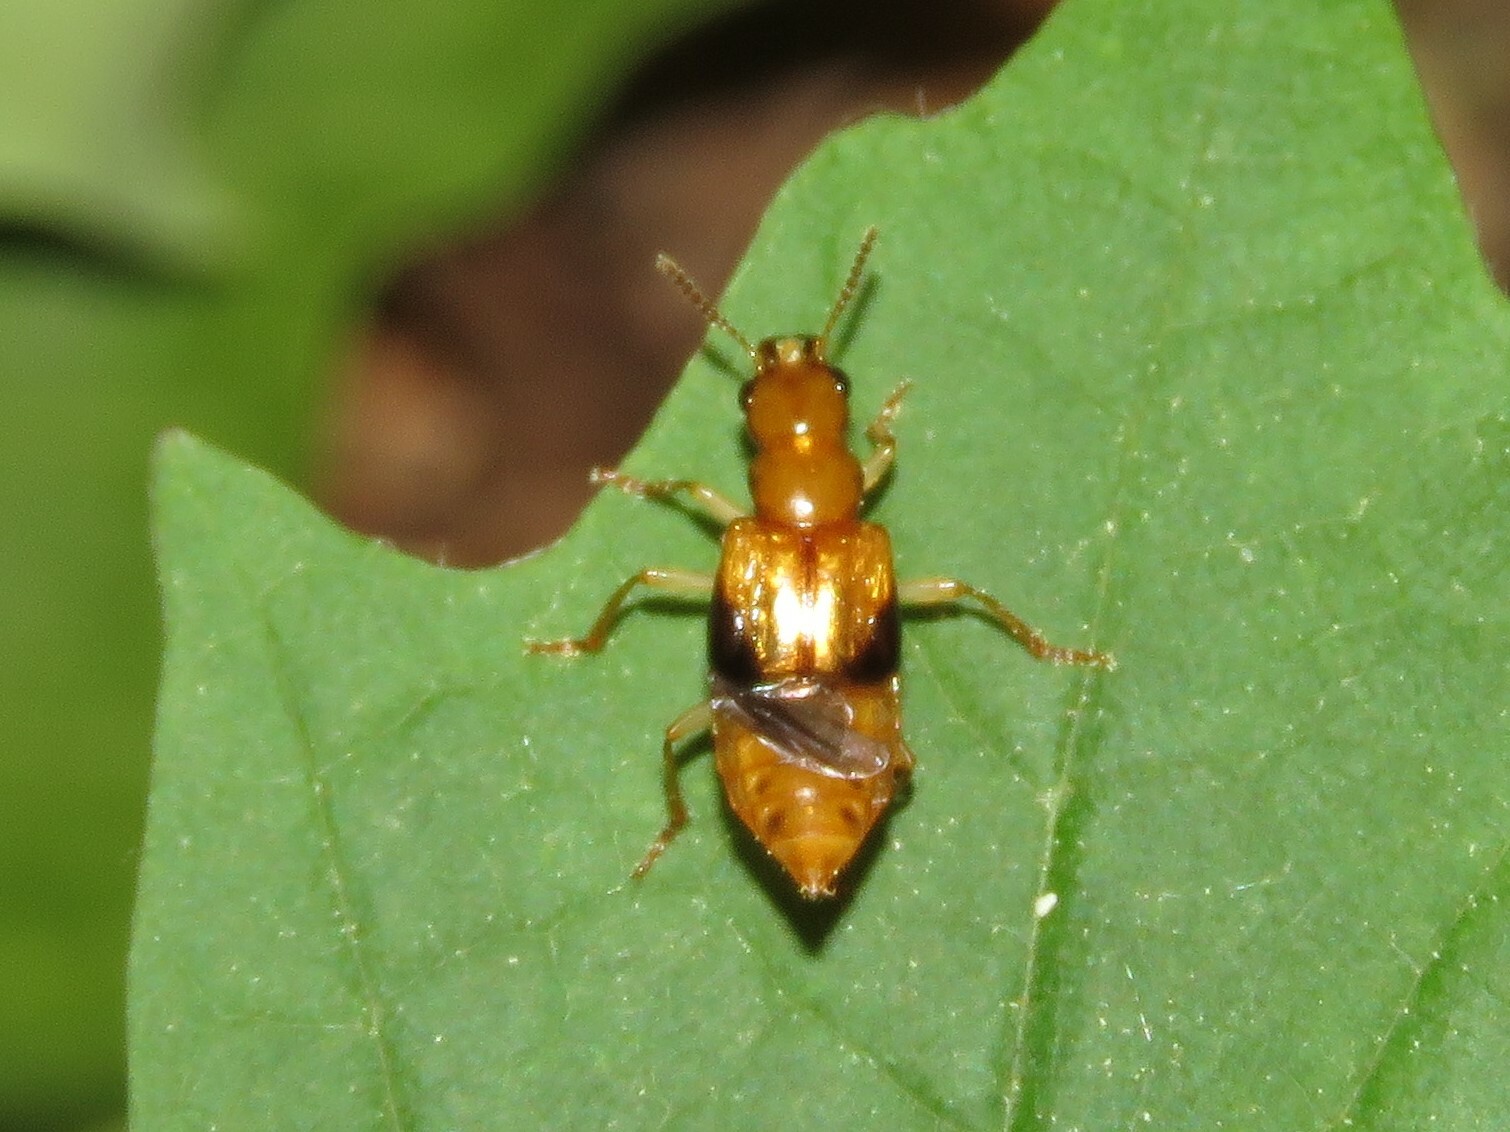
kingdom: Animalia
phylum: Arthropoda
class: Insecta
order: Coleoptera
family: Staphylinidae
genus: Pseudoxyporus
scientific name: Pseudoxyporus lateralis
